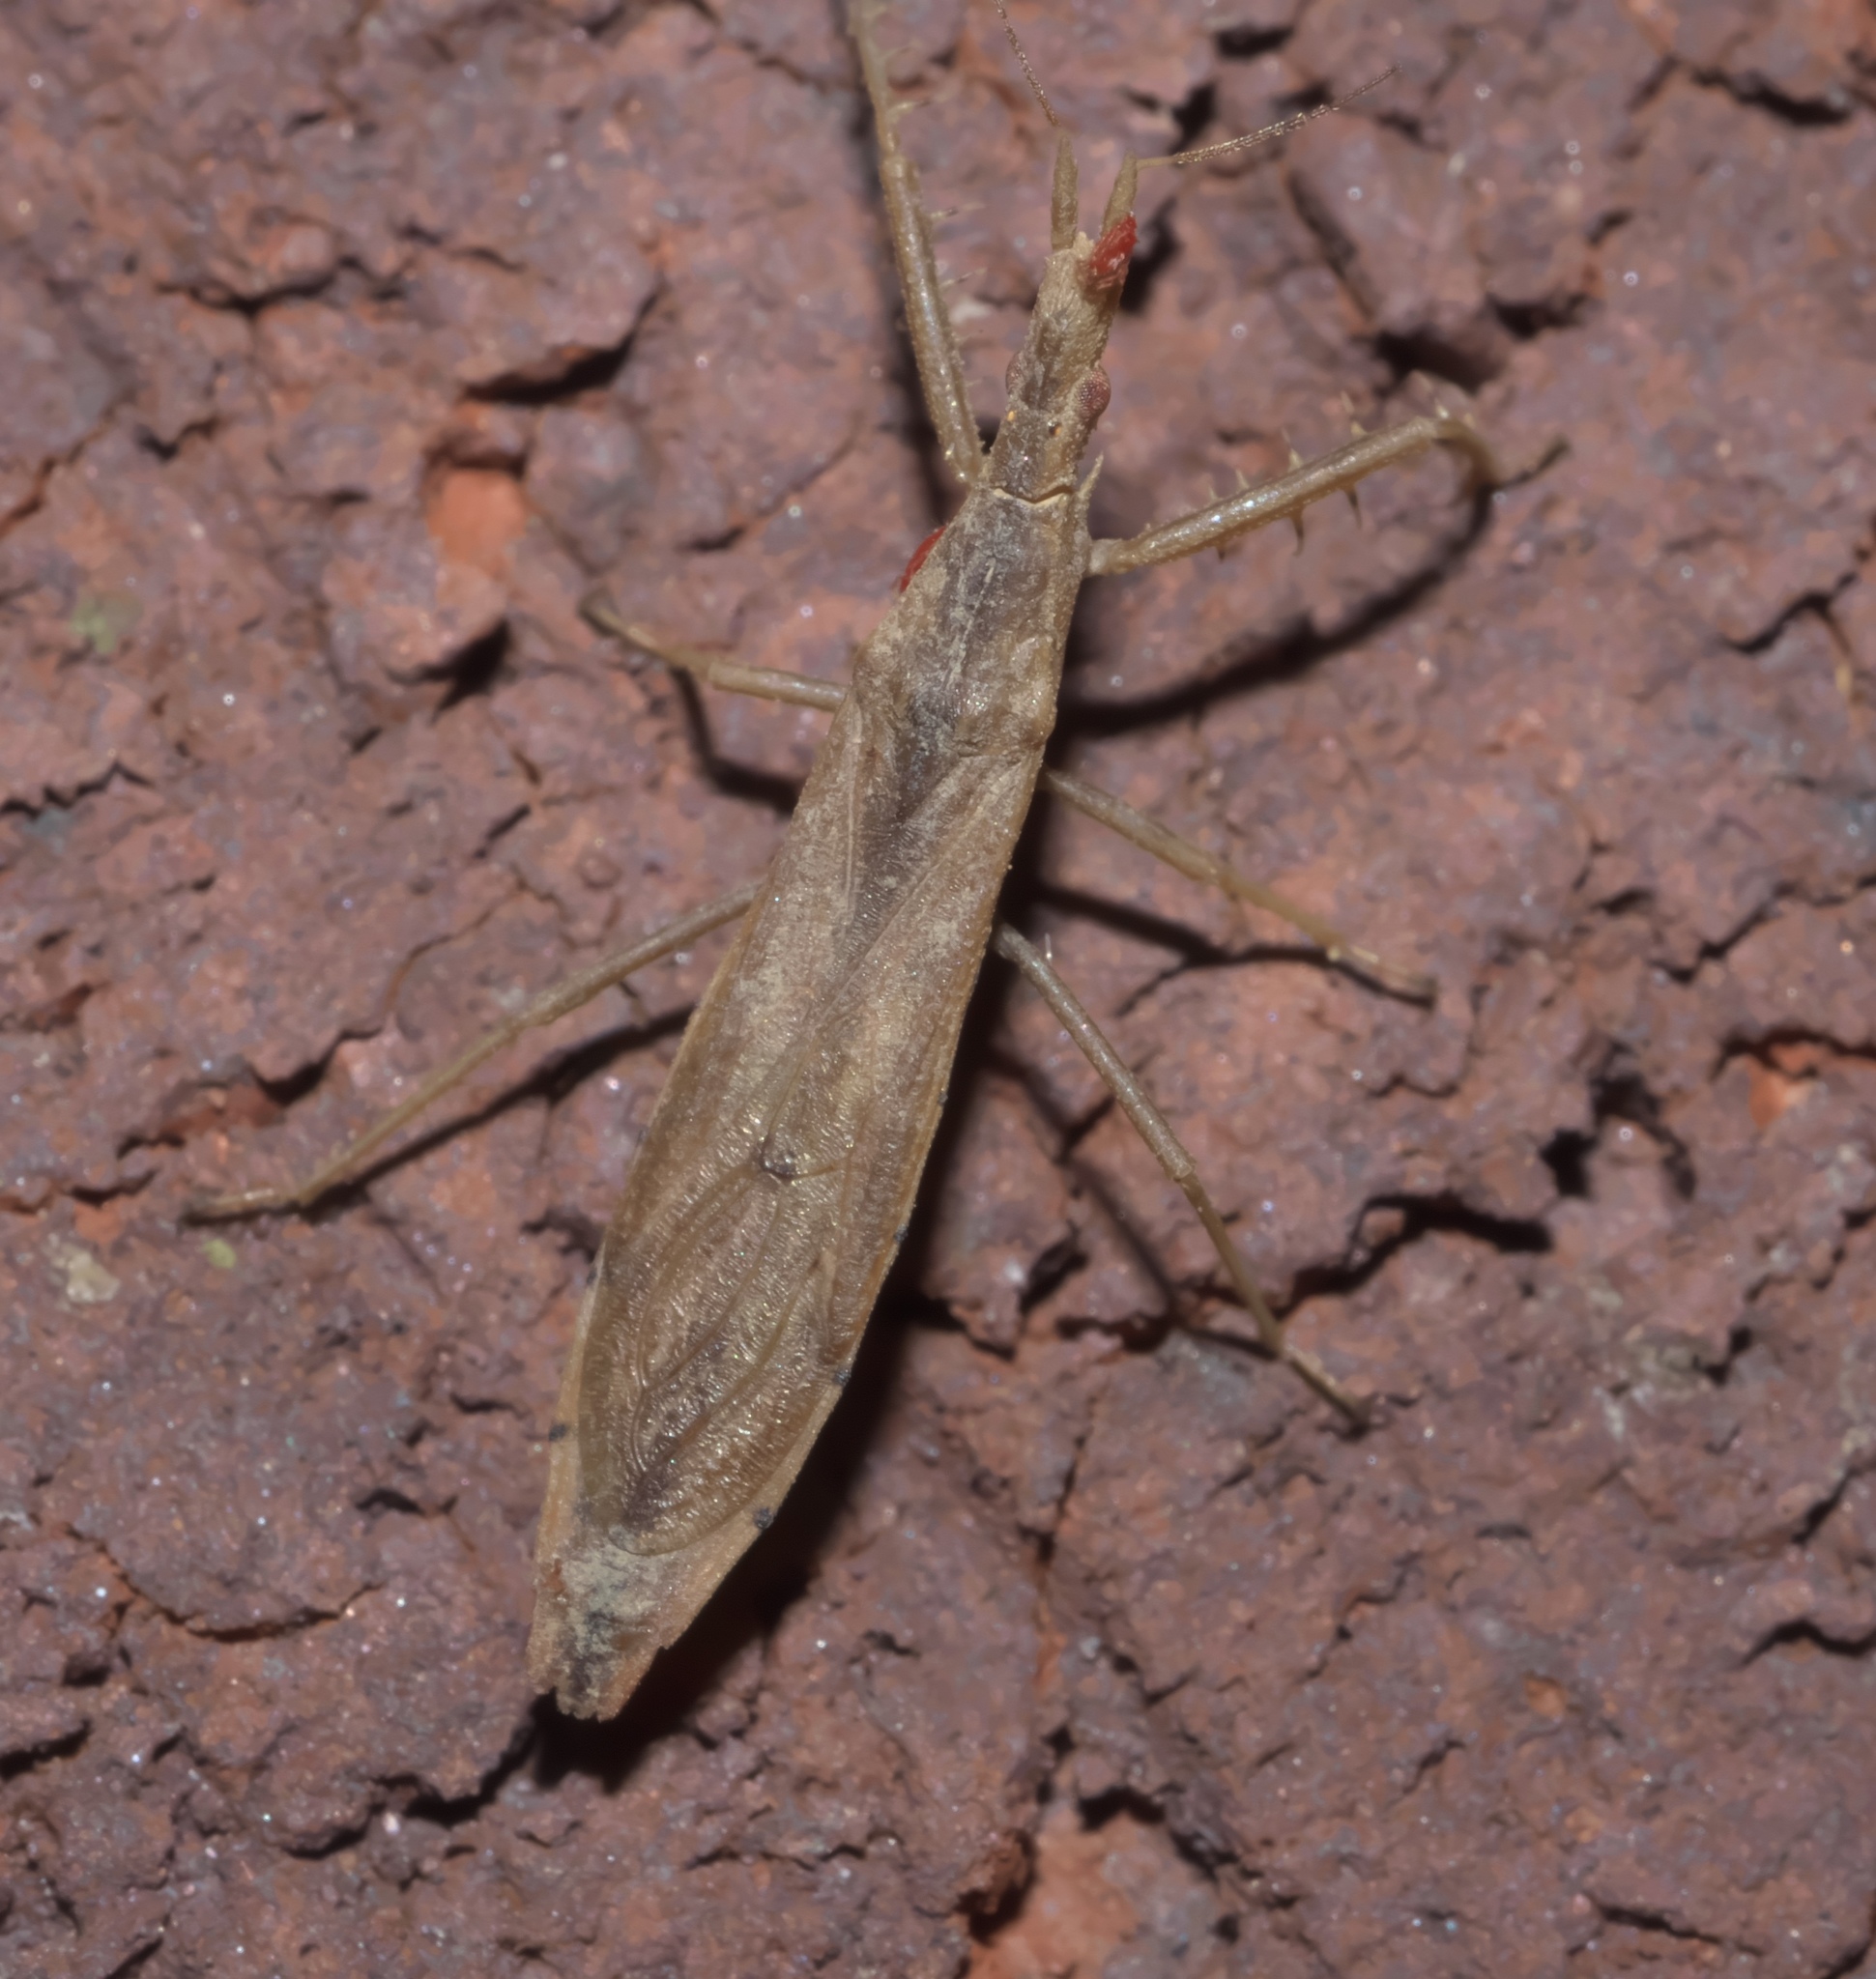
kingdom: Animalia
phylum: Arthropoda
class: Insecta
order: Hemiptera
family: Reduviidae
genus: Pnirontis
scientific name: Pnirontis modesta
